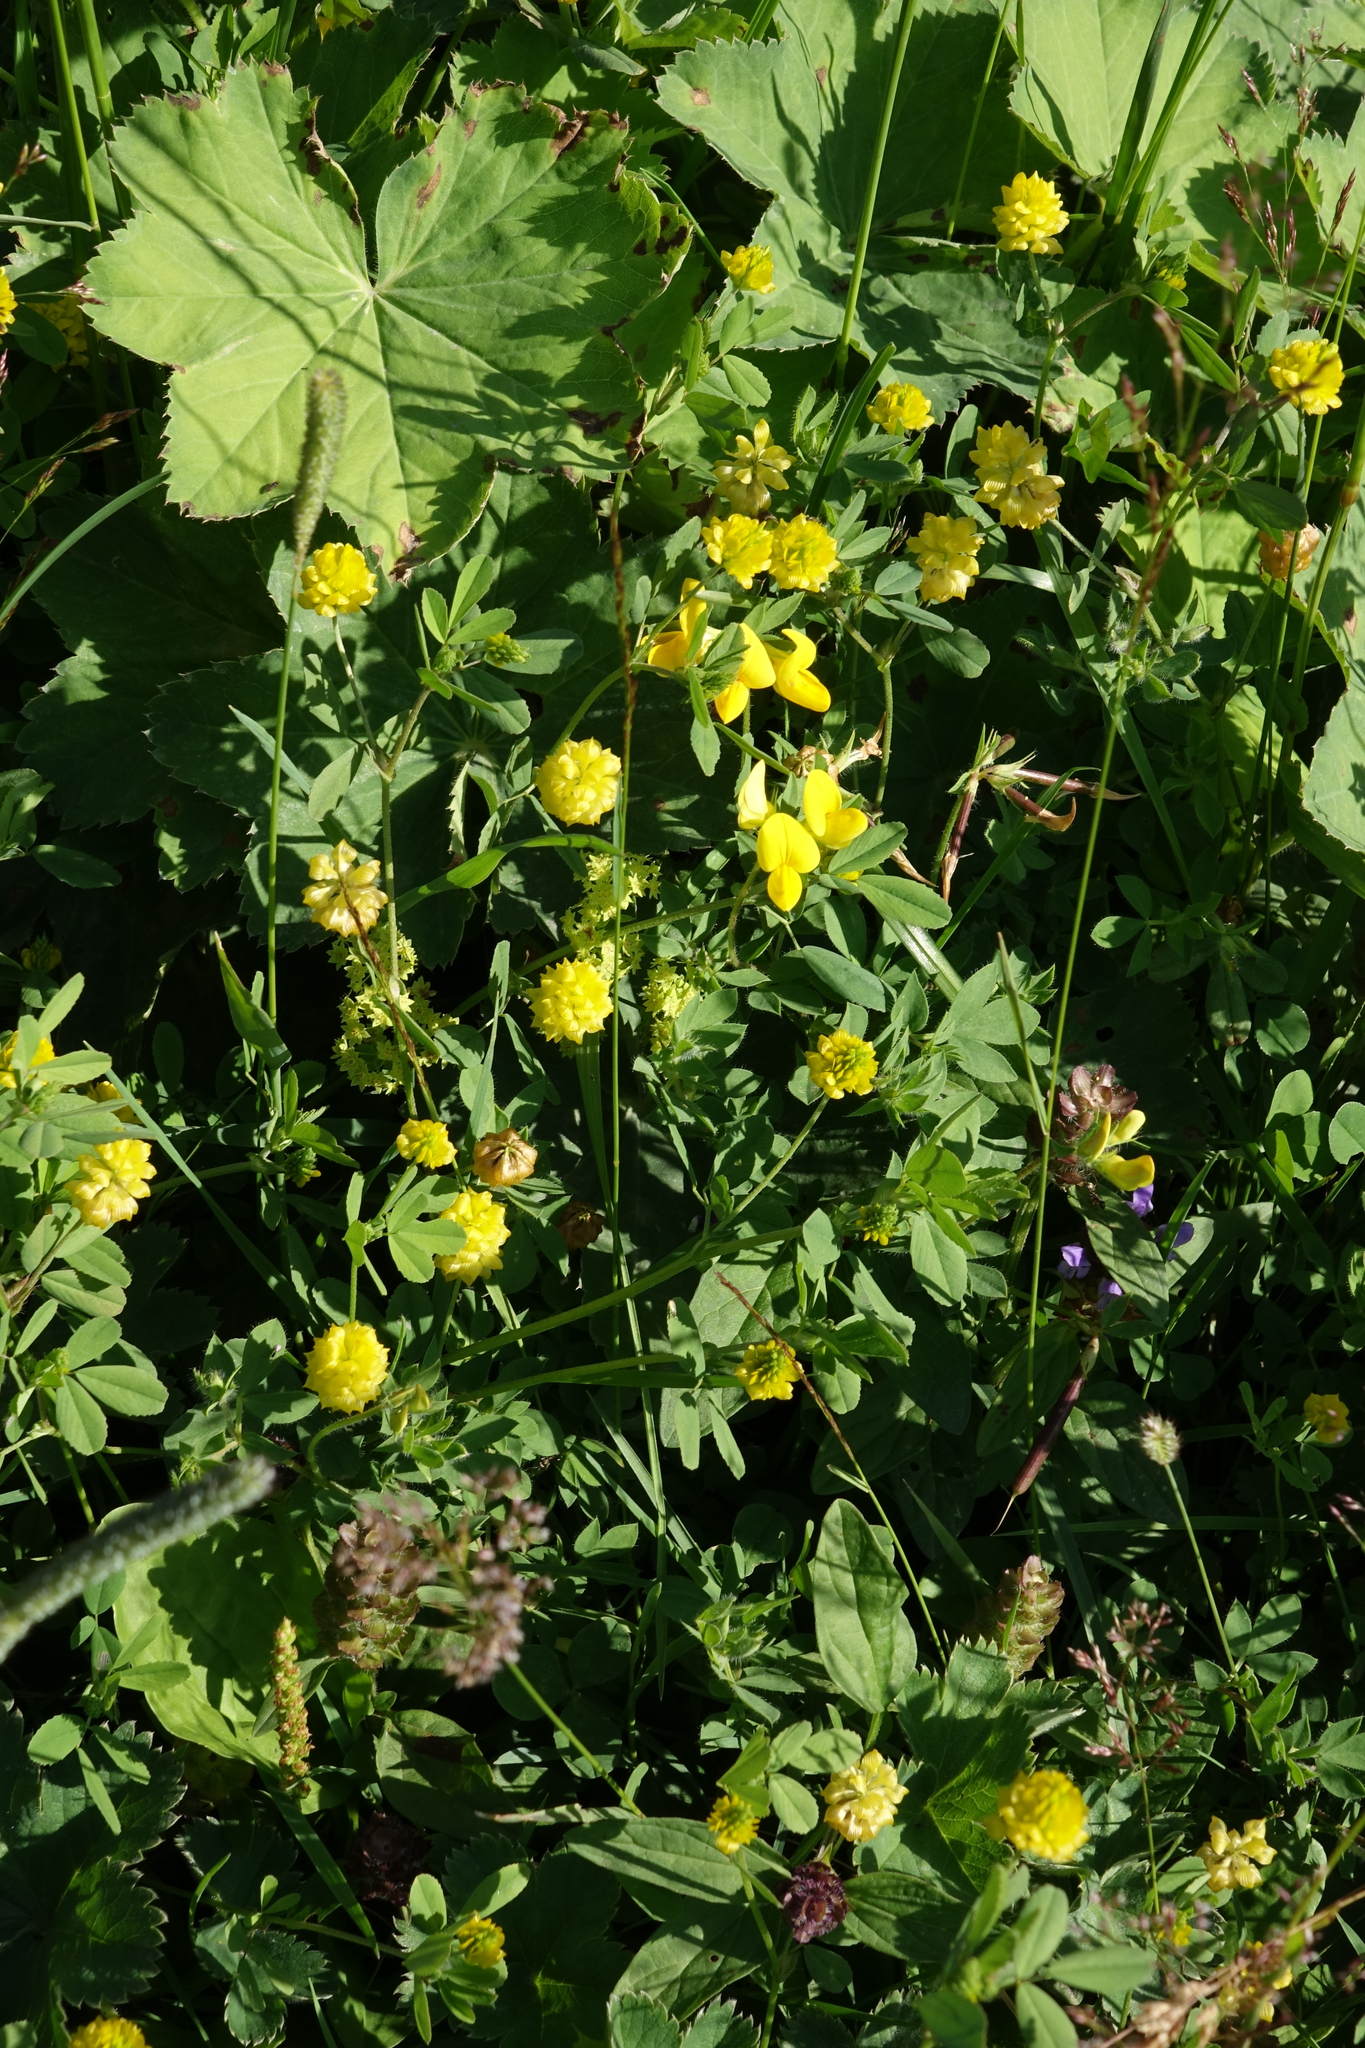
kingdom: Plantae
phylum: Tracheophyta
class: Magnoliopsida
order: Fabales
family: Fabaceae
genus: Trifolium
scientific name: Trifolium campestre
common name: Field clover
